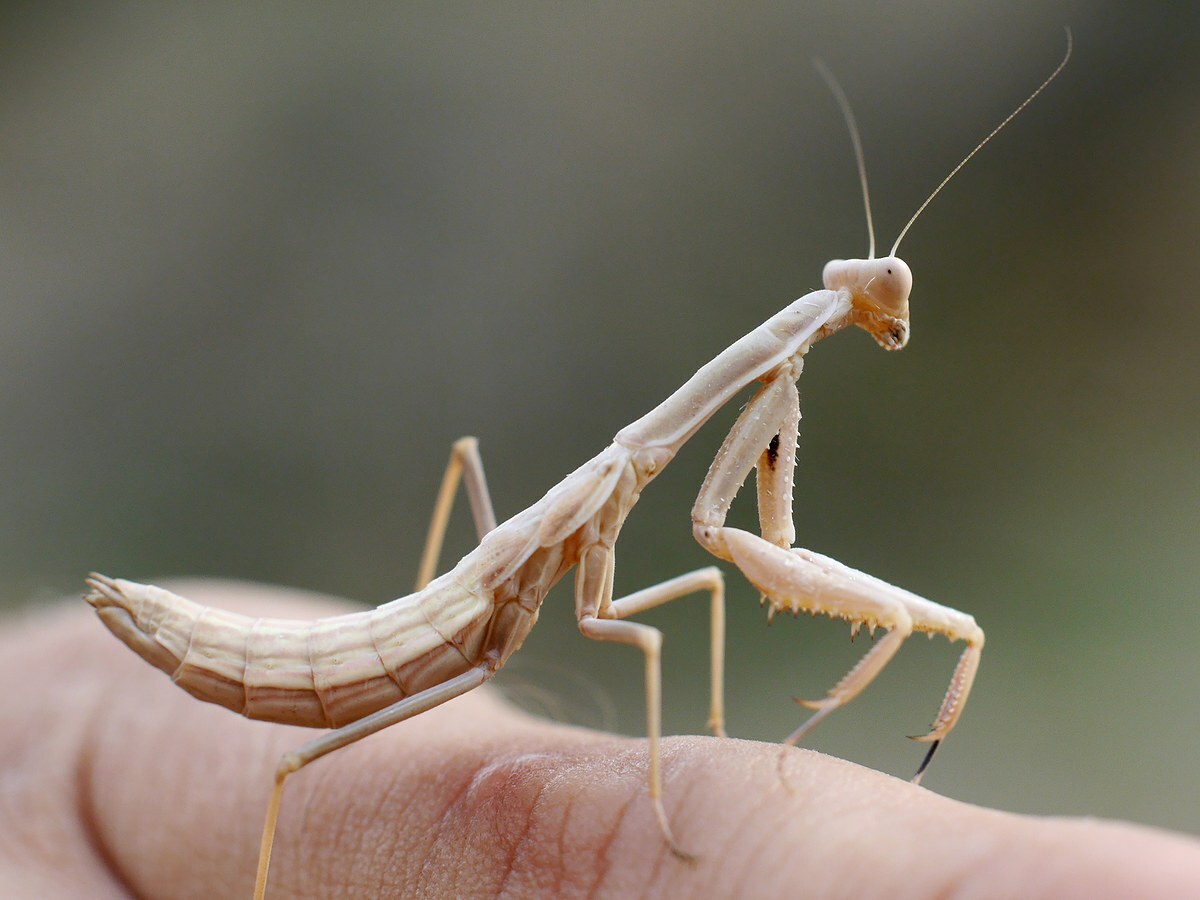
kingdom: Animalia
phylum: Arthropoda
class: Insecta
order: Mantodea
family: Eremiaphilidae
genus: Iris
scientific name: Iris polystictica
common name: Dot-winged mantis
